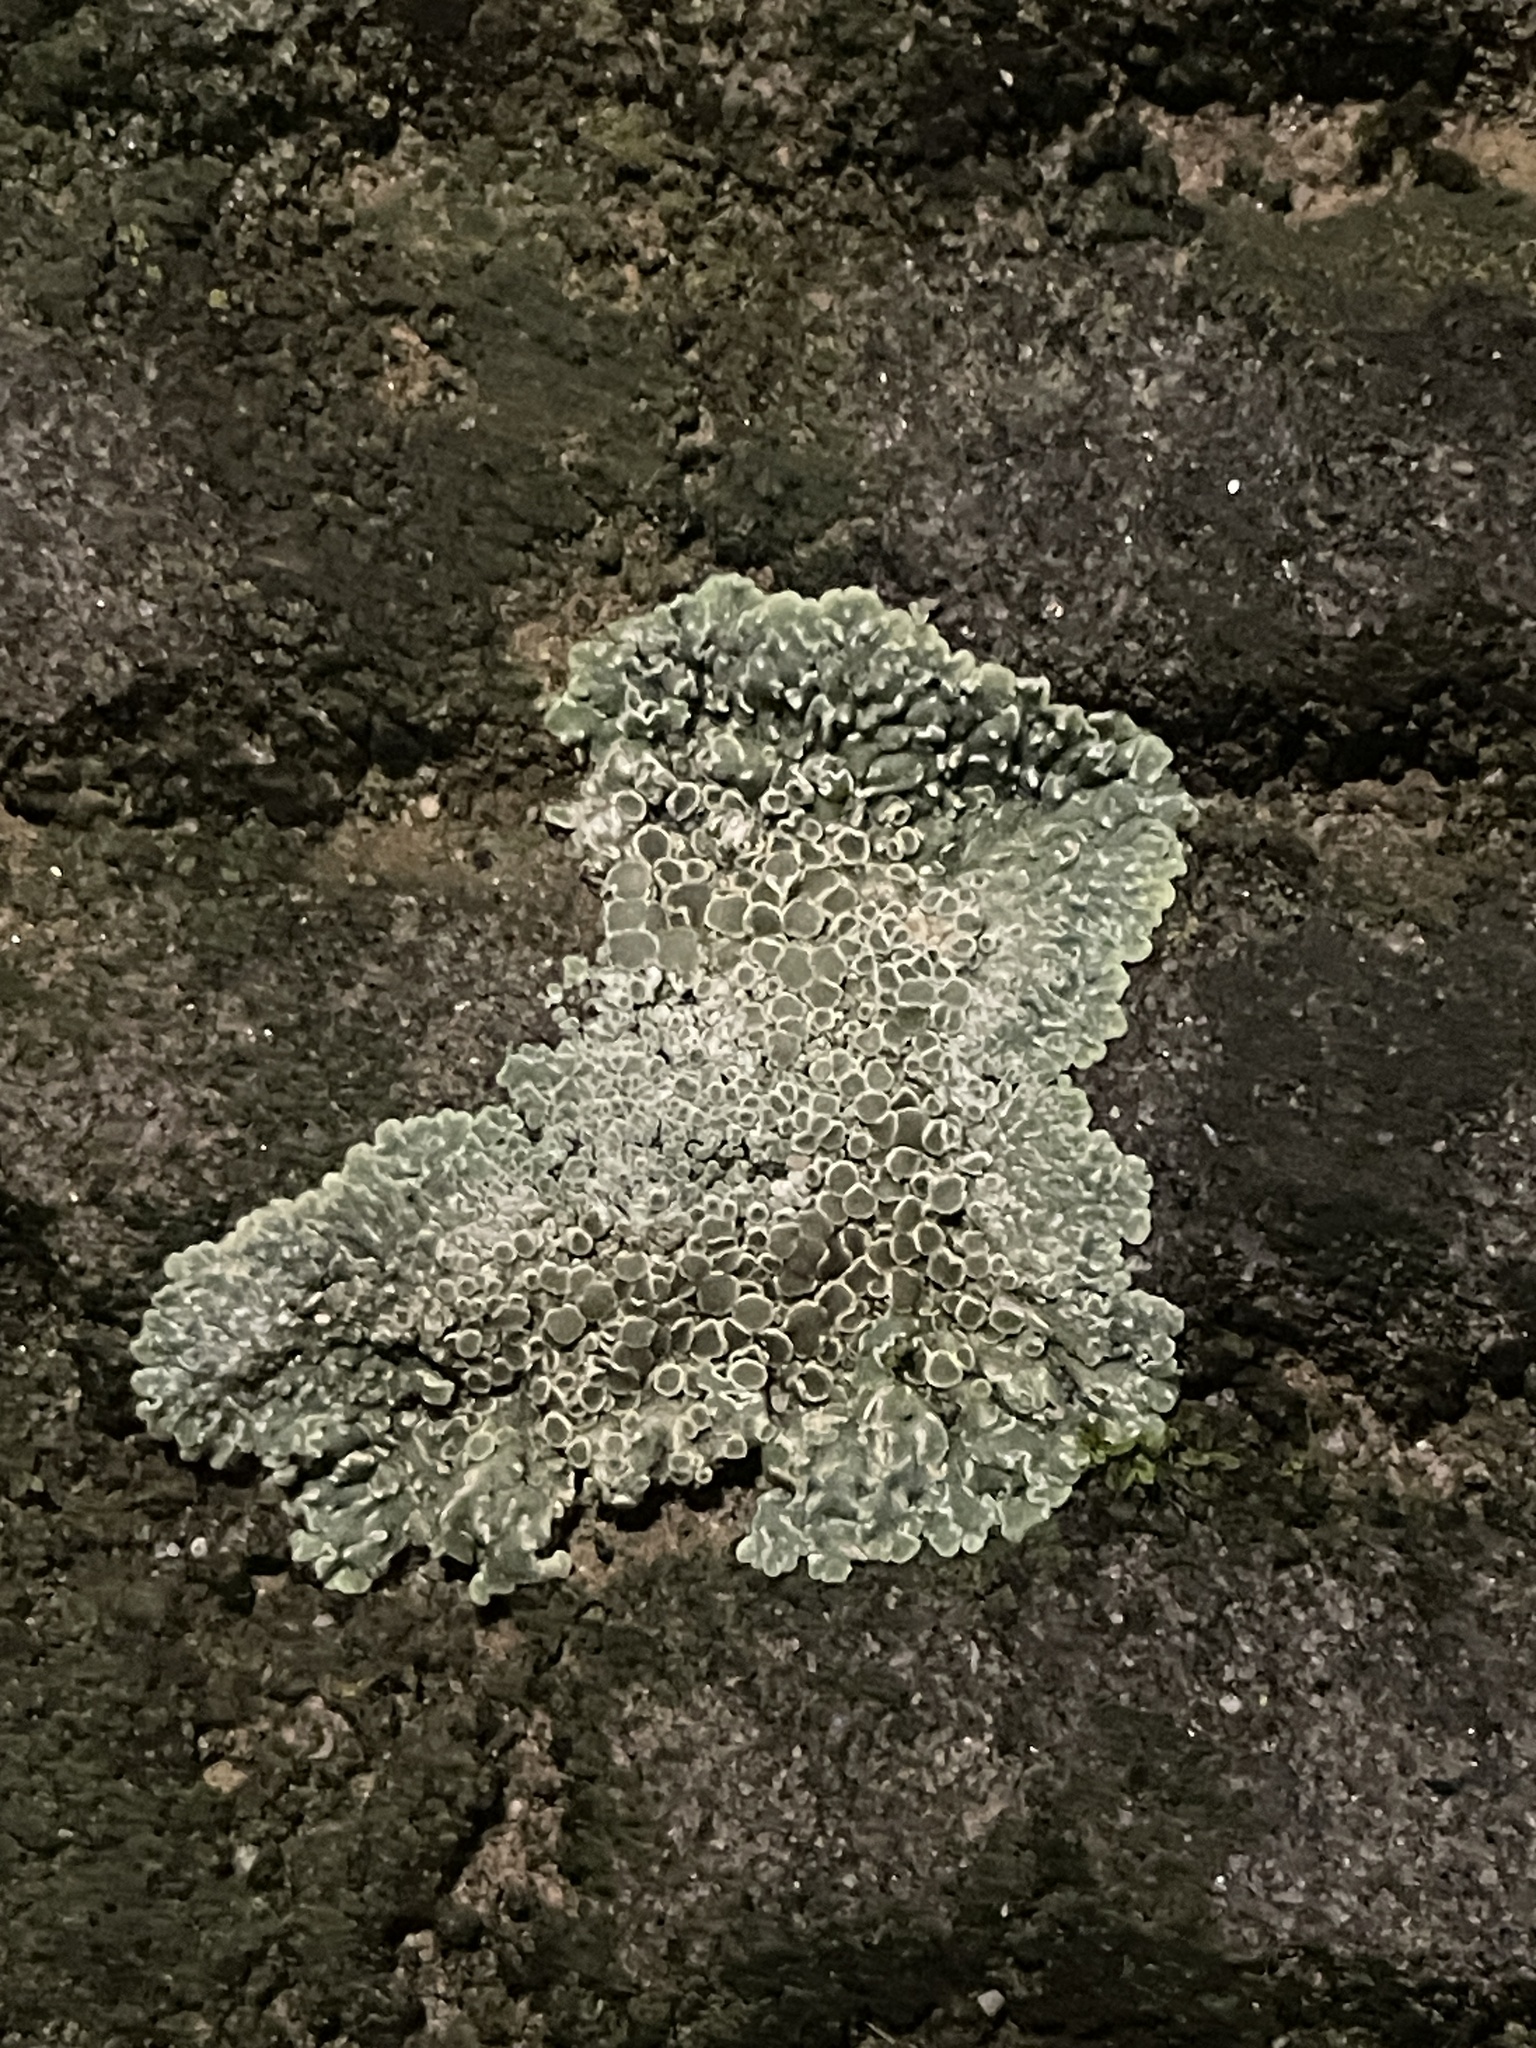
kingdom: Fungi
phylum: Ascomycota
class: Lecanoromycetes
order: Lecanorales
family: Lecanoraceae
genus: Protoparmeliopsis
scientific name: Protoparmeliopsis muralis
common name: Stonewall rim lichen
